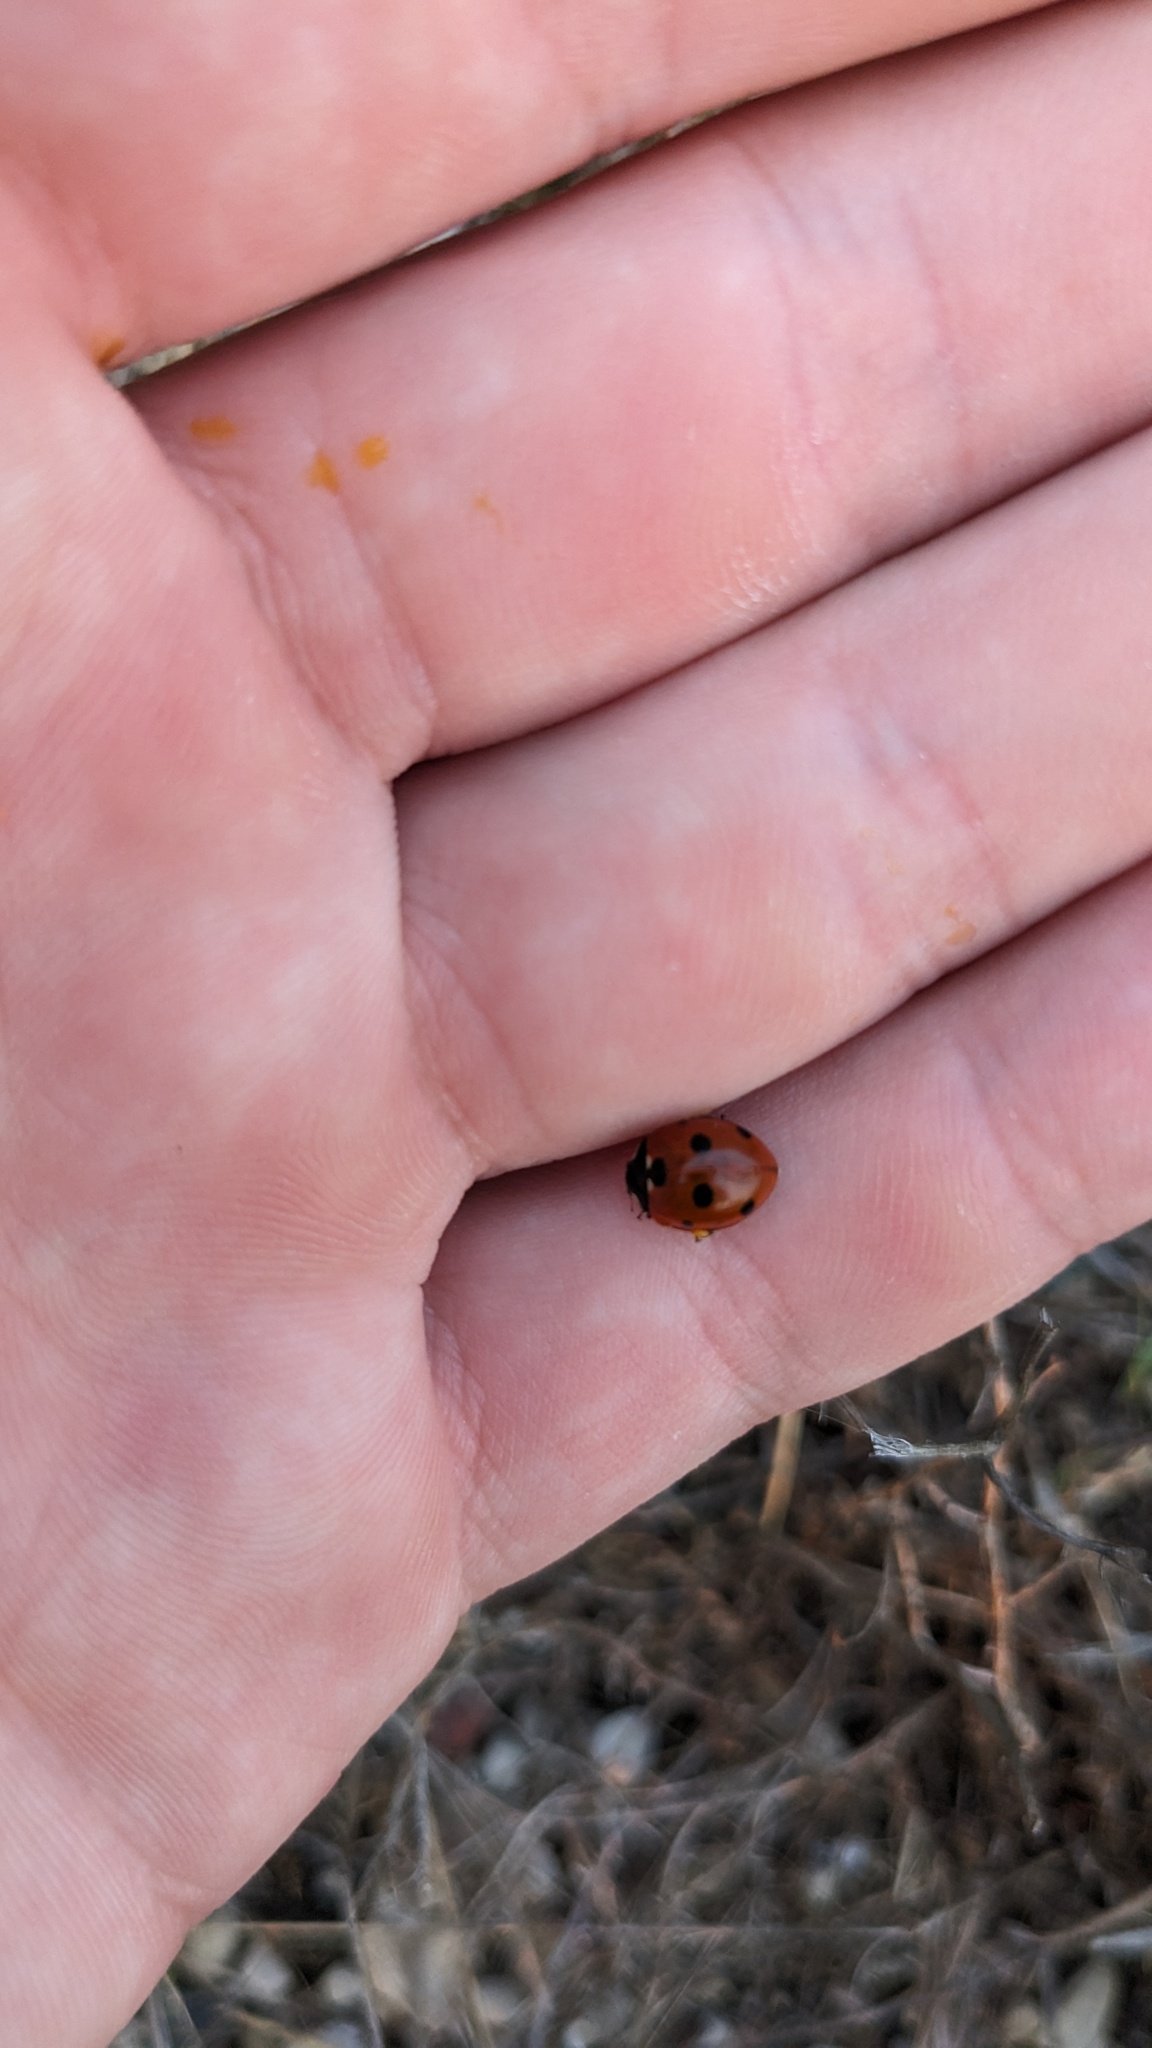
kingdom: Animalia
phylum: Arthropoda
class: Insecta
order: Coleoptera
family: Coccinellidae
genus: Coccinella
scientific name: Coccinella septempunctata
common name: Sevenspotted lady beetle
